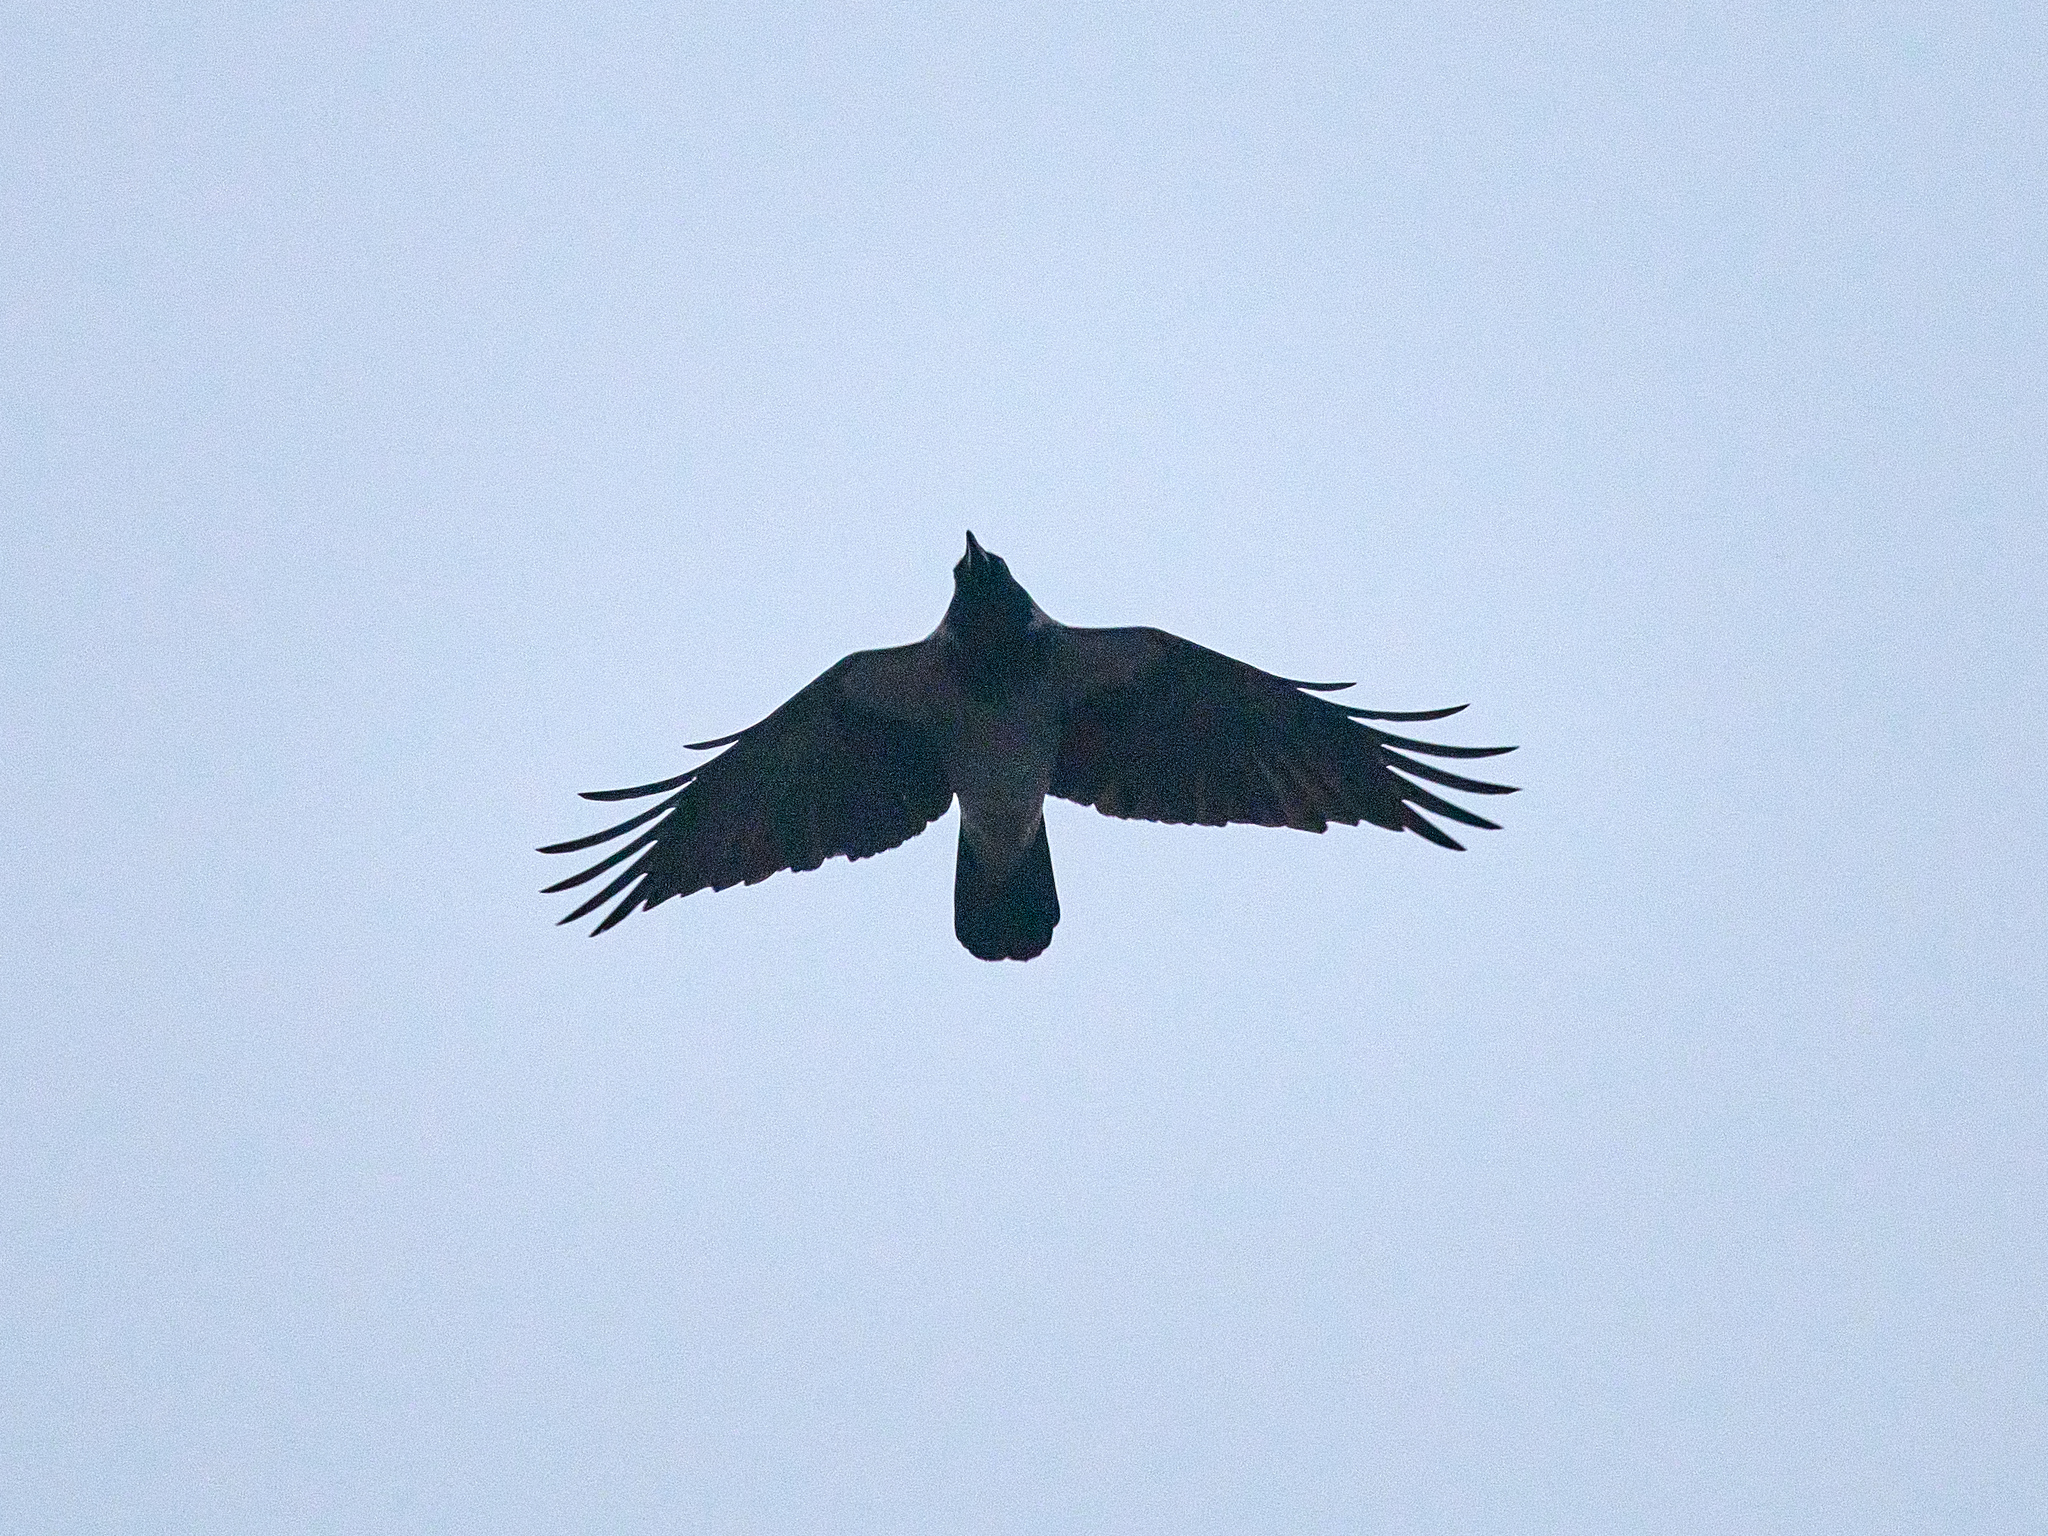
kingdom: Animalia
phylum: Chordata
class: Aves
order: Passeriformes
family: Corvidae
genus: Corvus
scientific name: Corvus cornix
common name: Hooded crow
